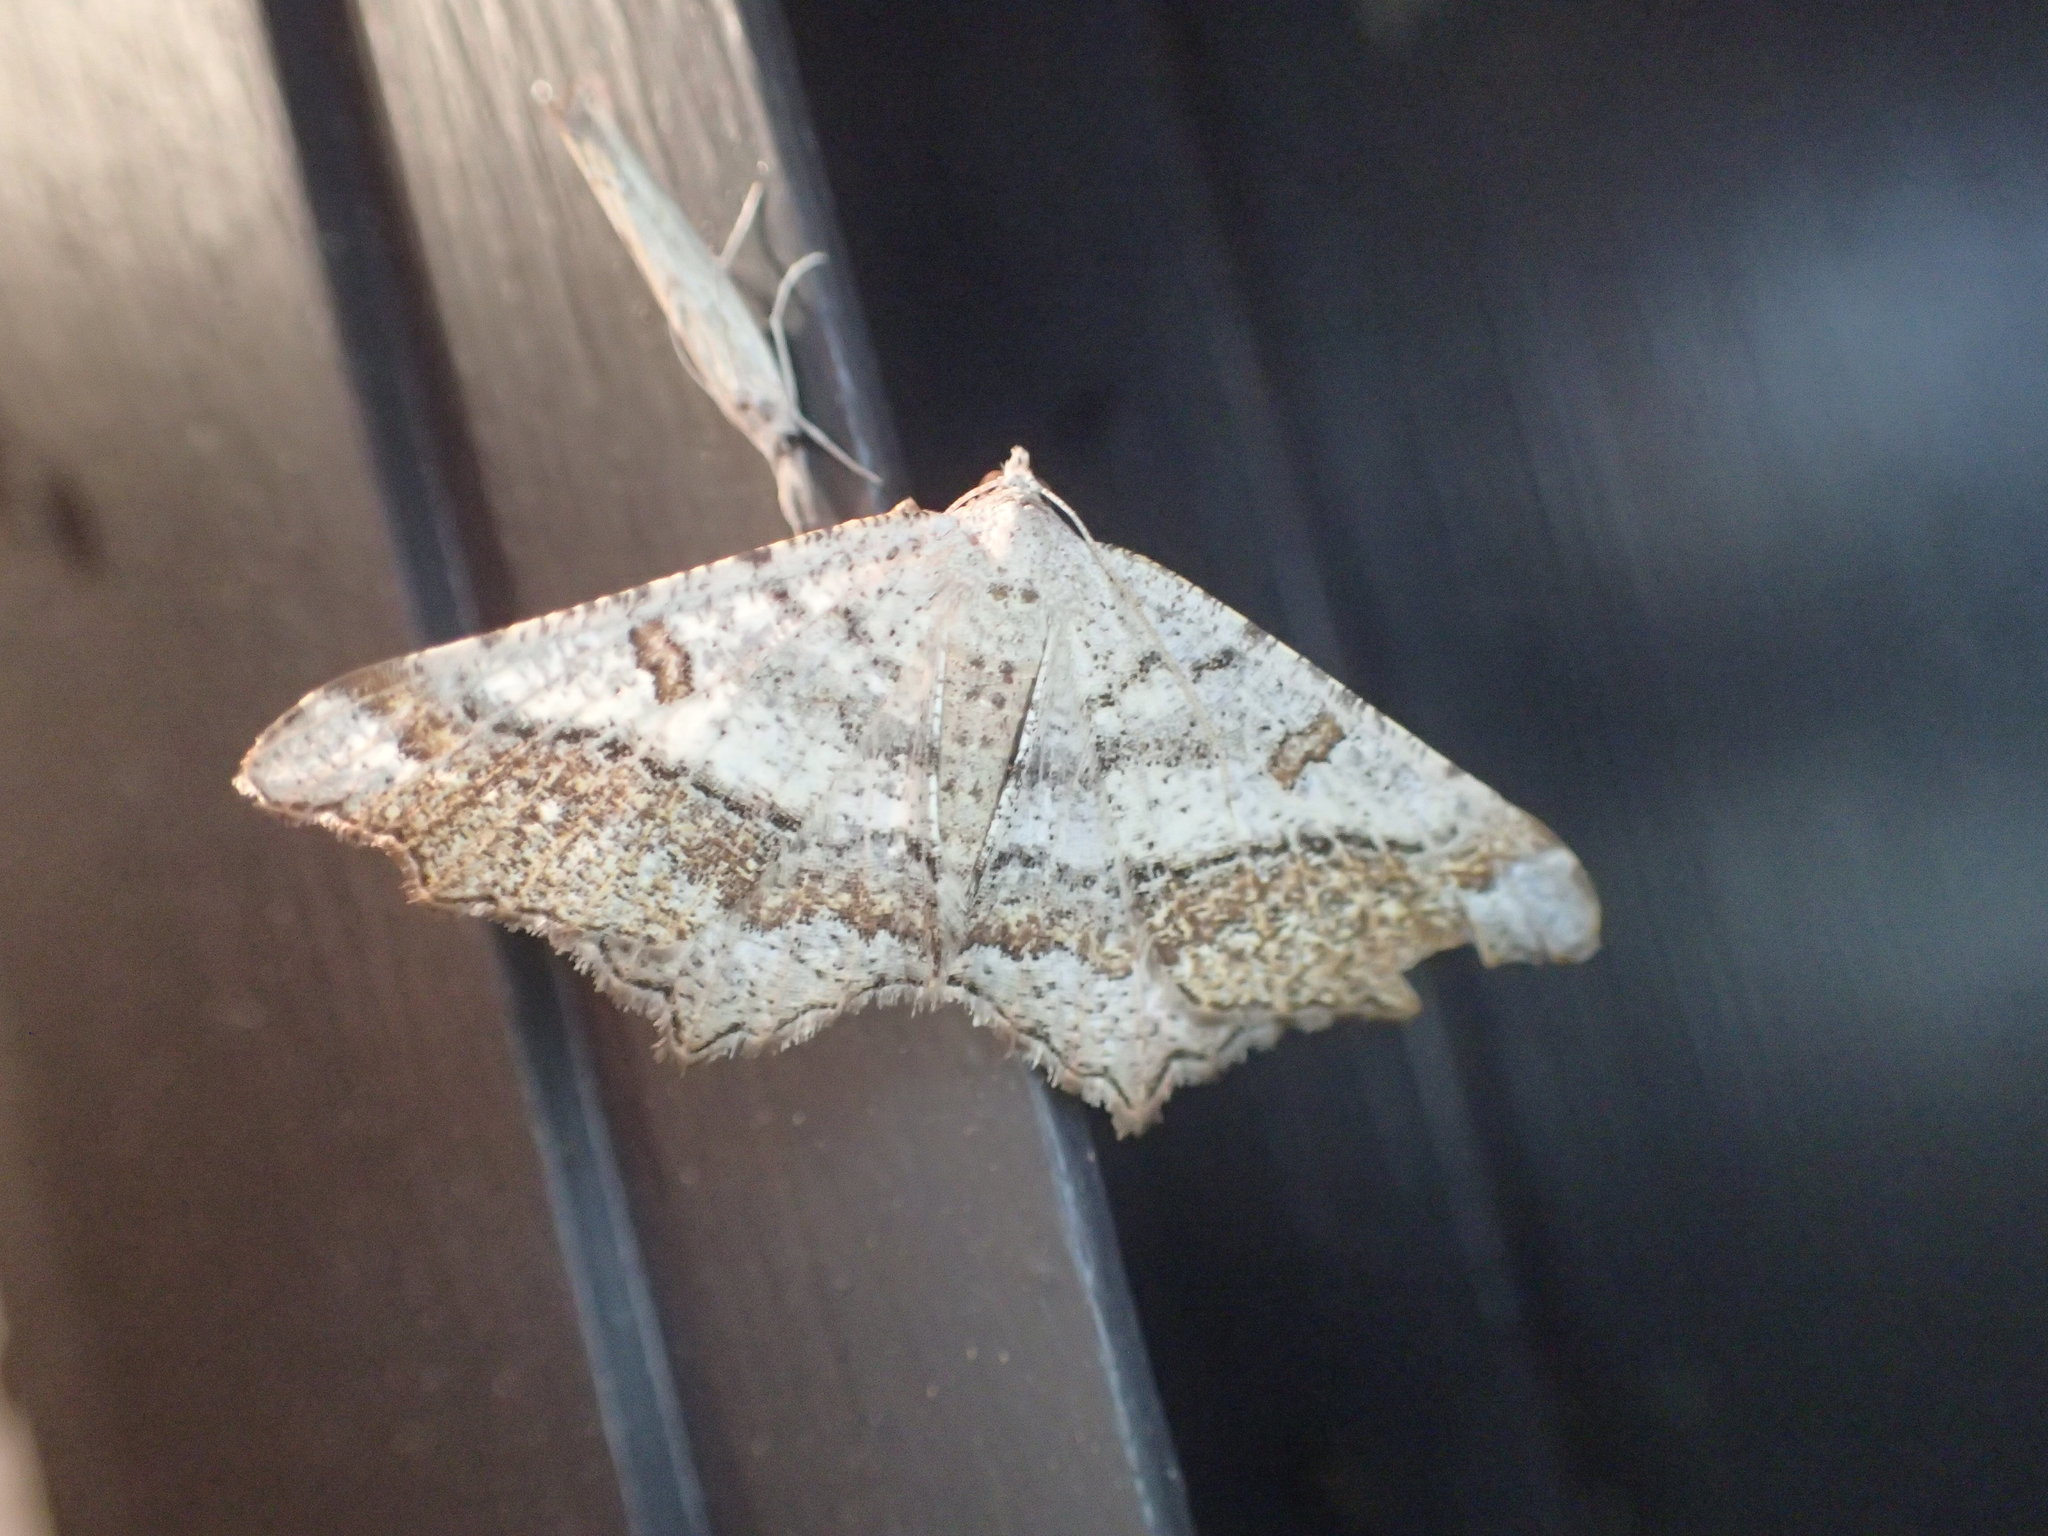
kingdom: Animalia
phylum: Arthropoda
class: Insecta
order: Lepidoptera
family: Geometridae
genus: Dissomorphia
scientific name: Dissomorphia australiaria
